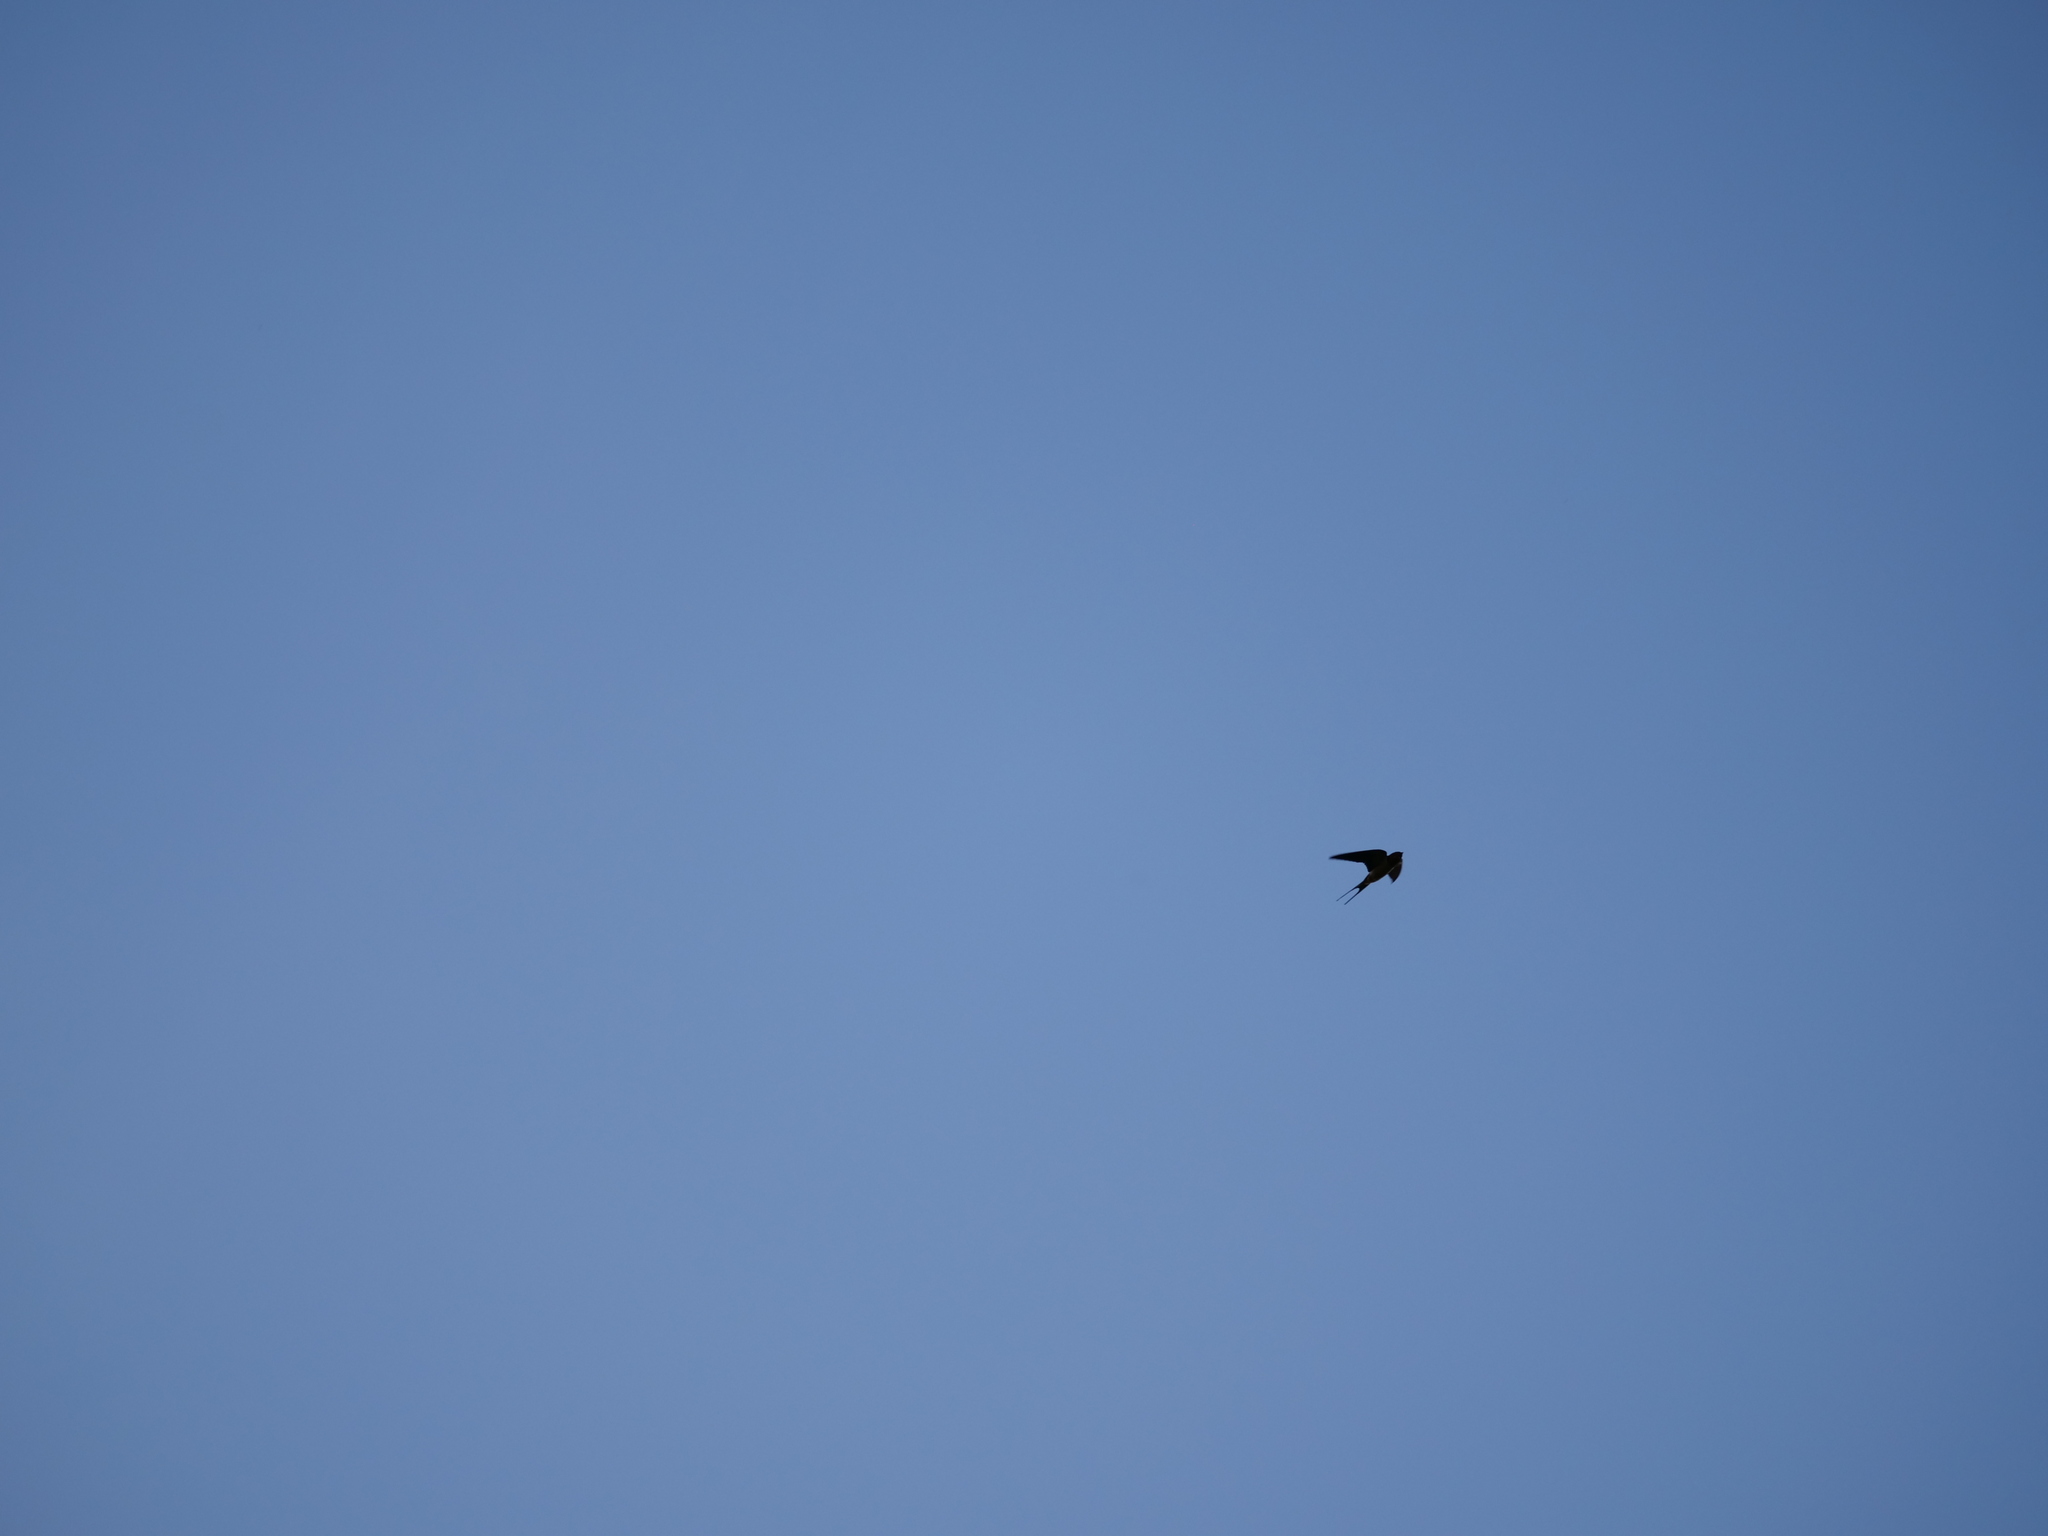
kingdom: Animalia
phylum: Chordata
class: Aves
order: Passeriformes
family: Hirundinidae
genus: Hirundo
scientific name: Hirundo rustica
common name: Barn swallow
